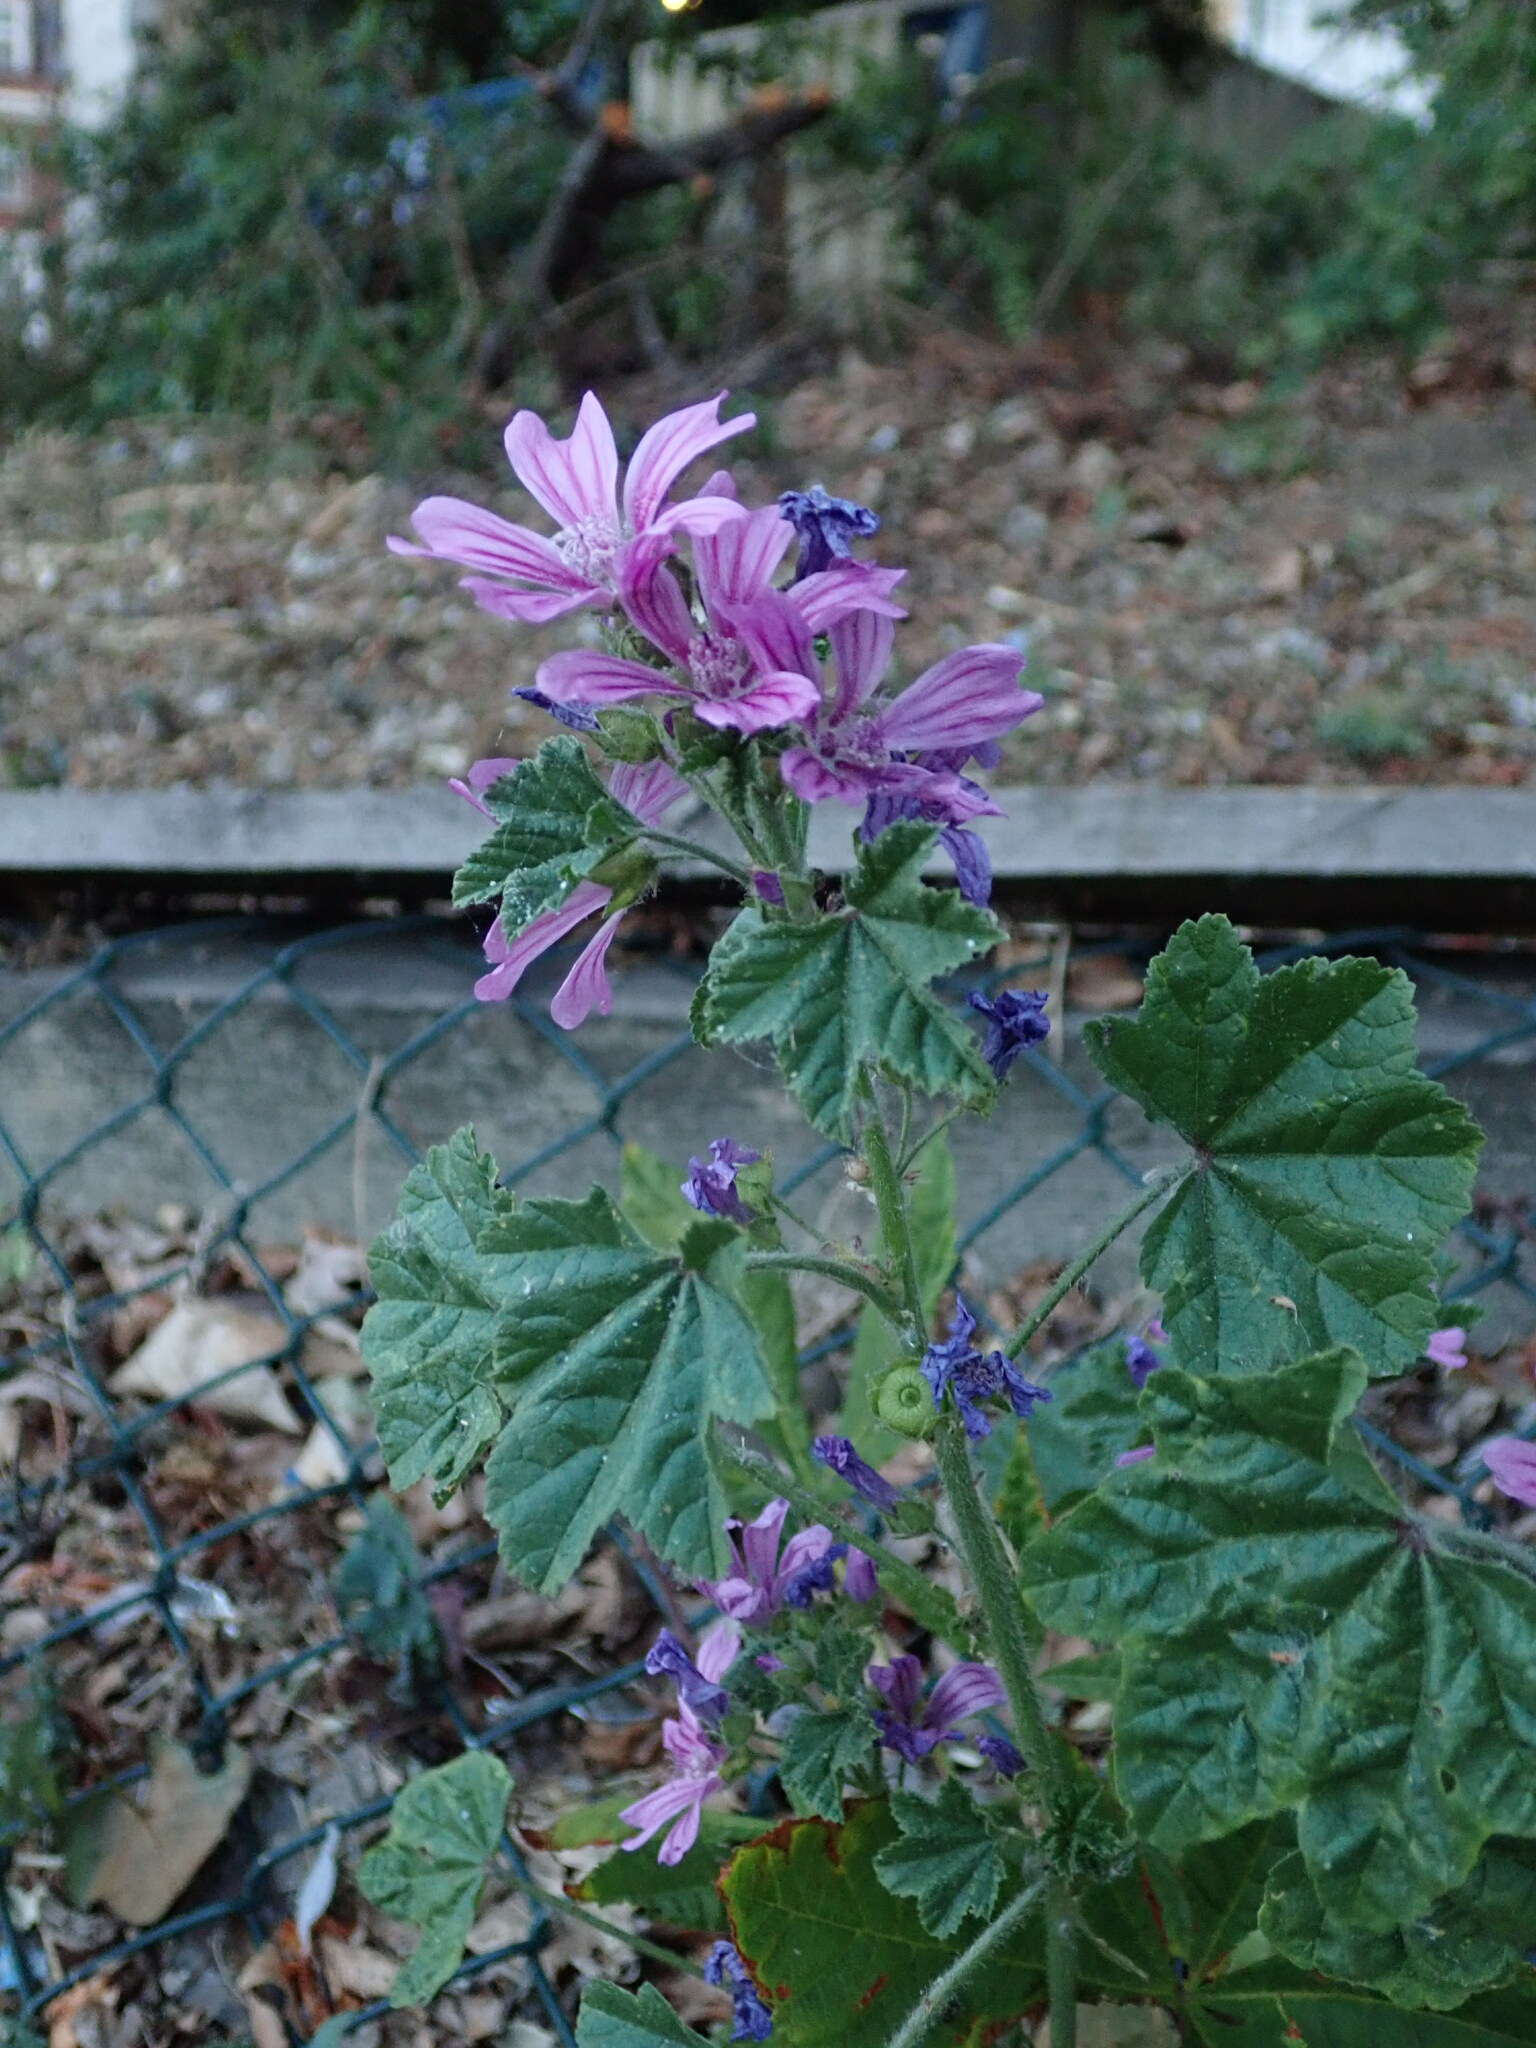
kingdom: Plantae
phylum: Tracheophyta
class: Magnoliopsida
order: Malvales
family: Malvaceae
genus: Malva
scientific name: Malva sylvestris
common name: Common mallow
